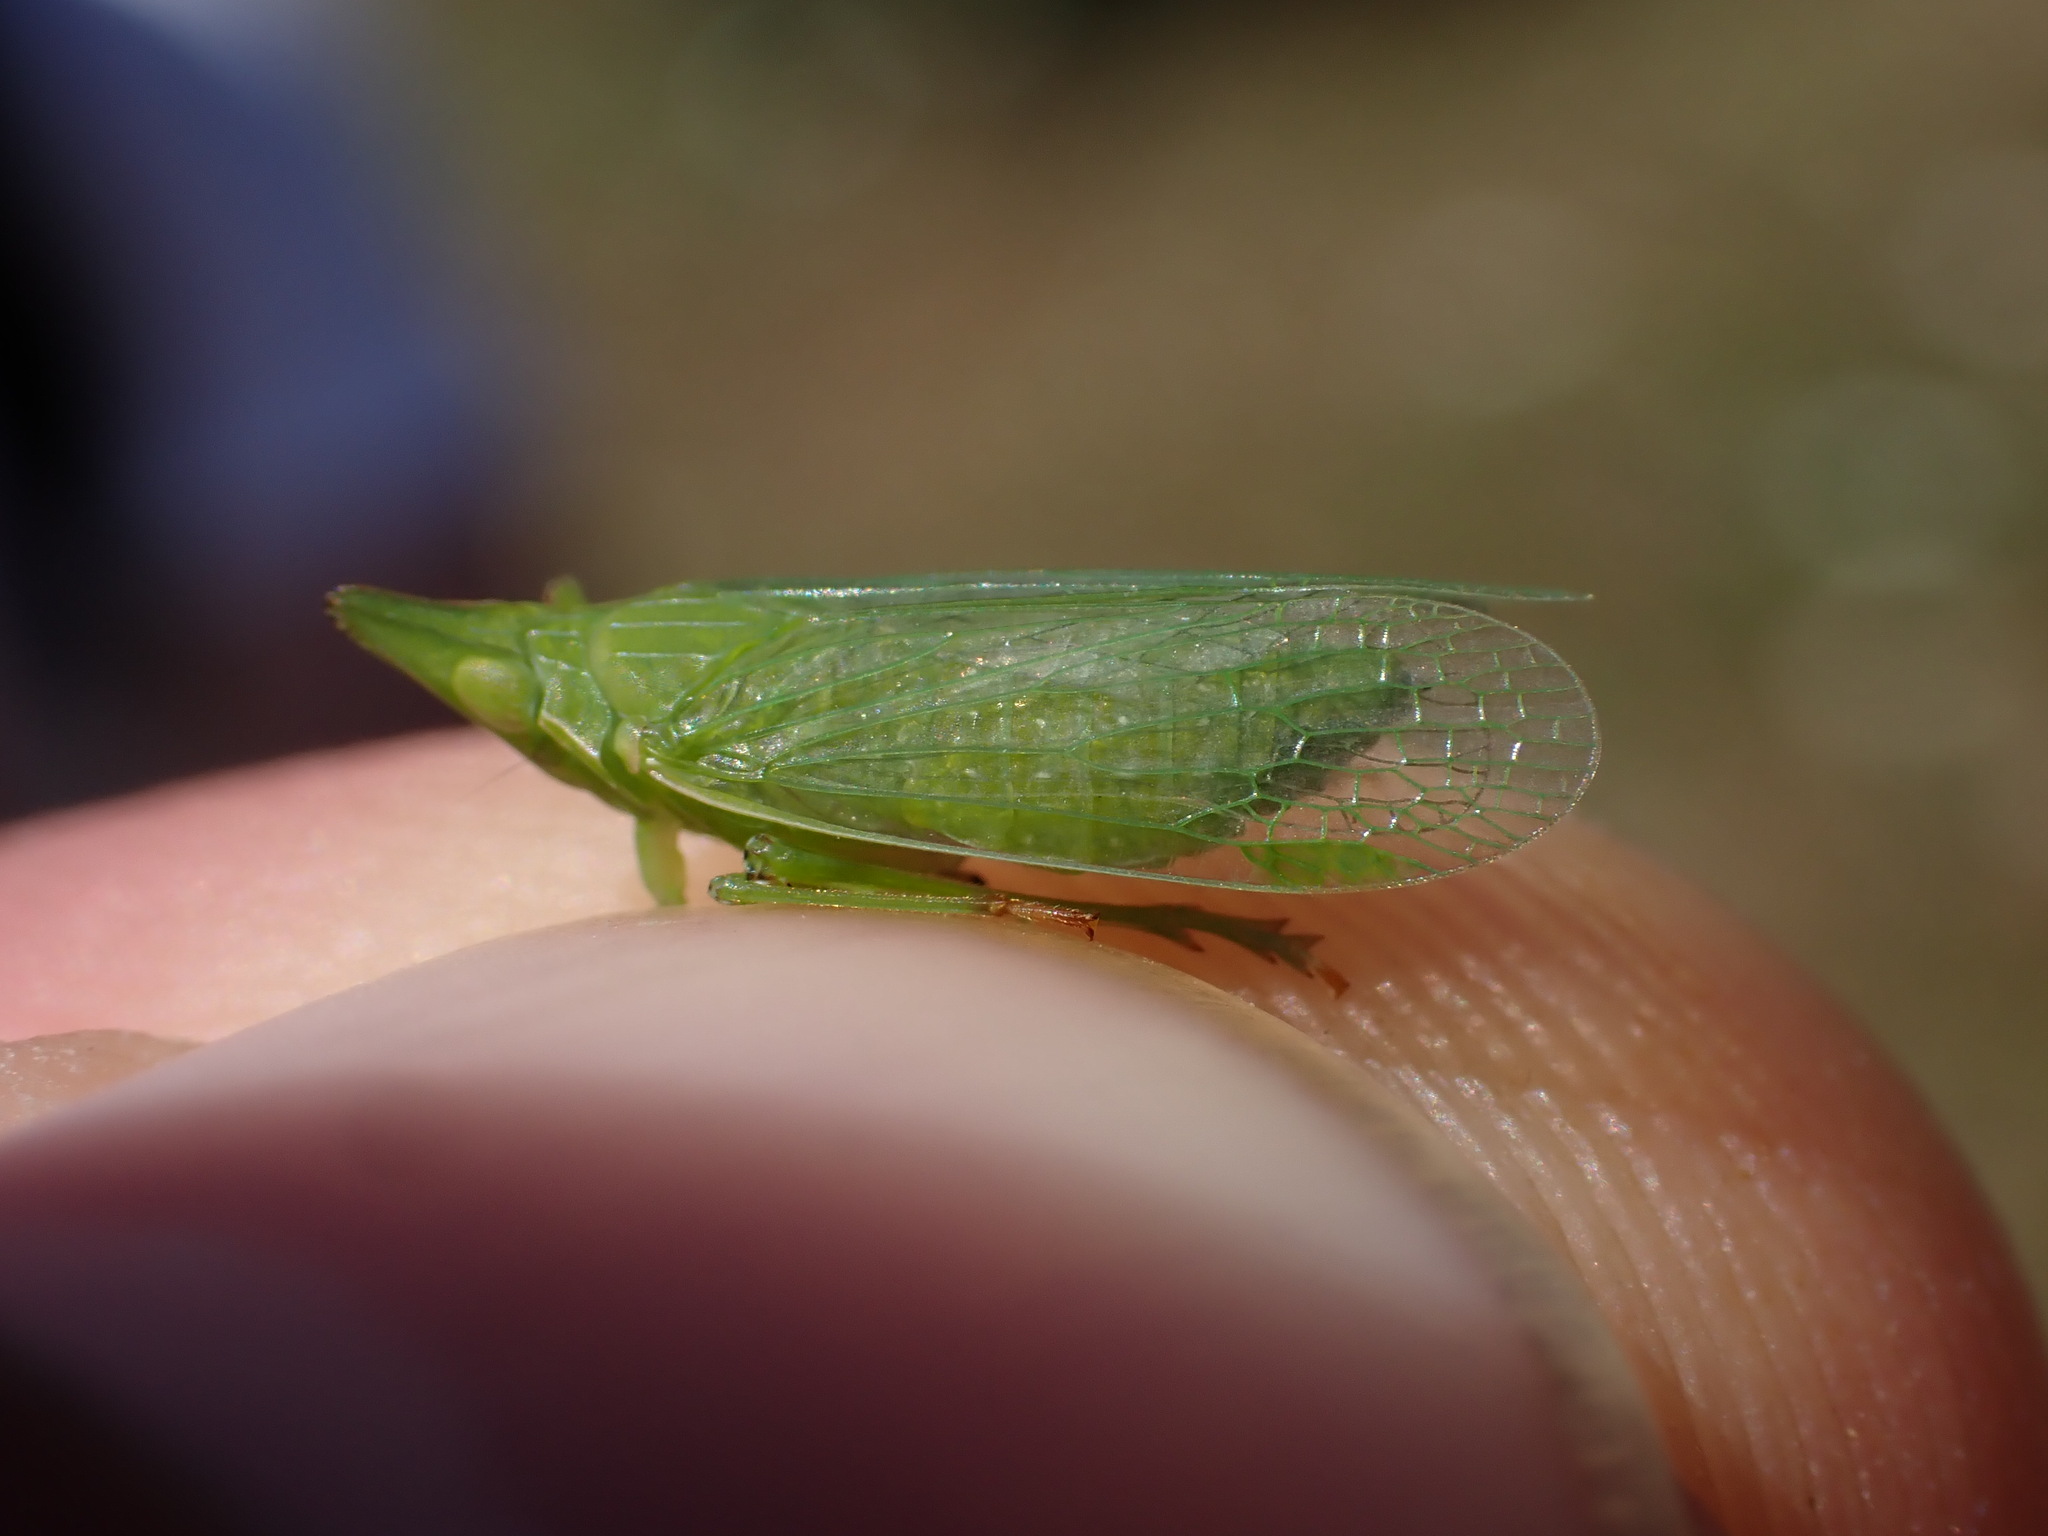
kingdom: Animalia
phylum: Arthropoda
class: Insecta
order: Hemiptera
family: Dictyopharidae
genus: Dictyophara
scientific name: Dictyophara europaea
